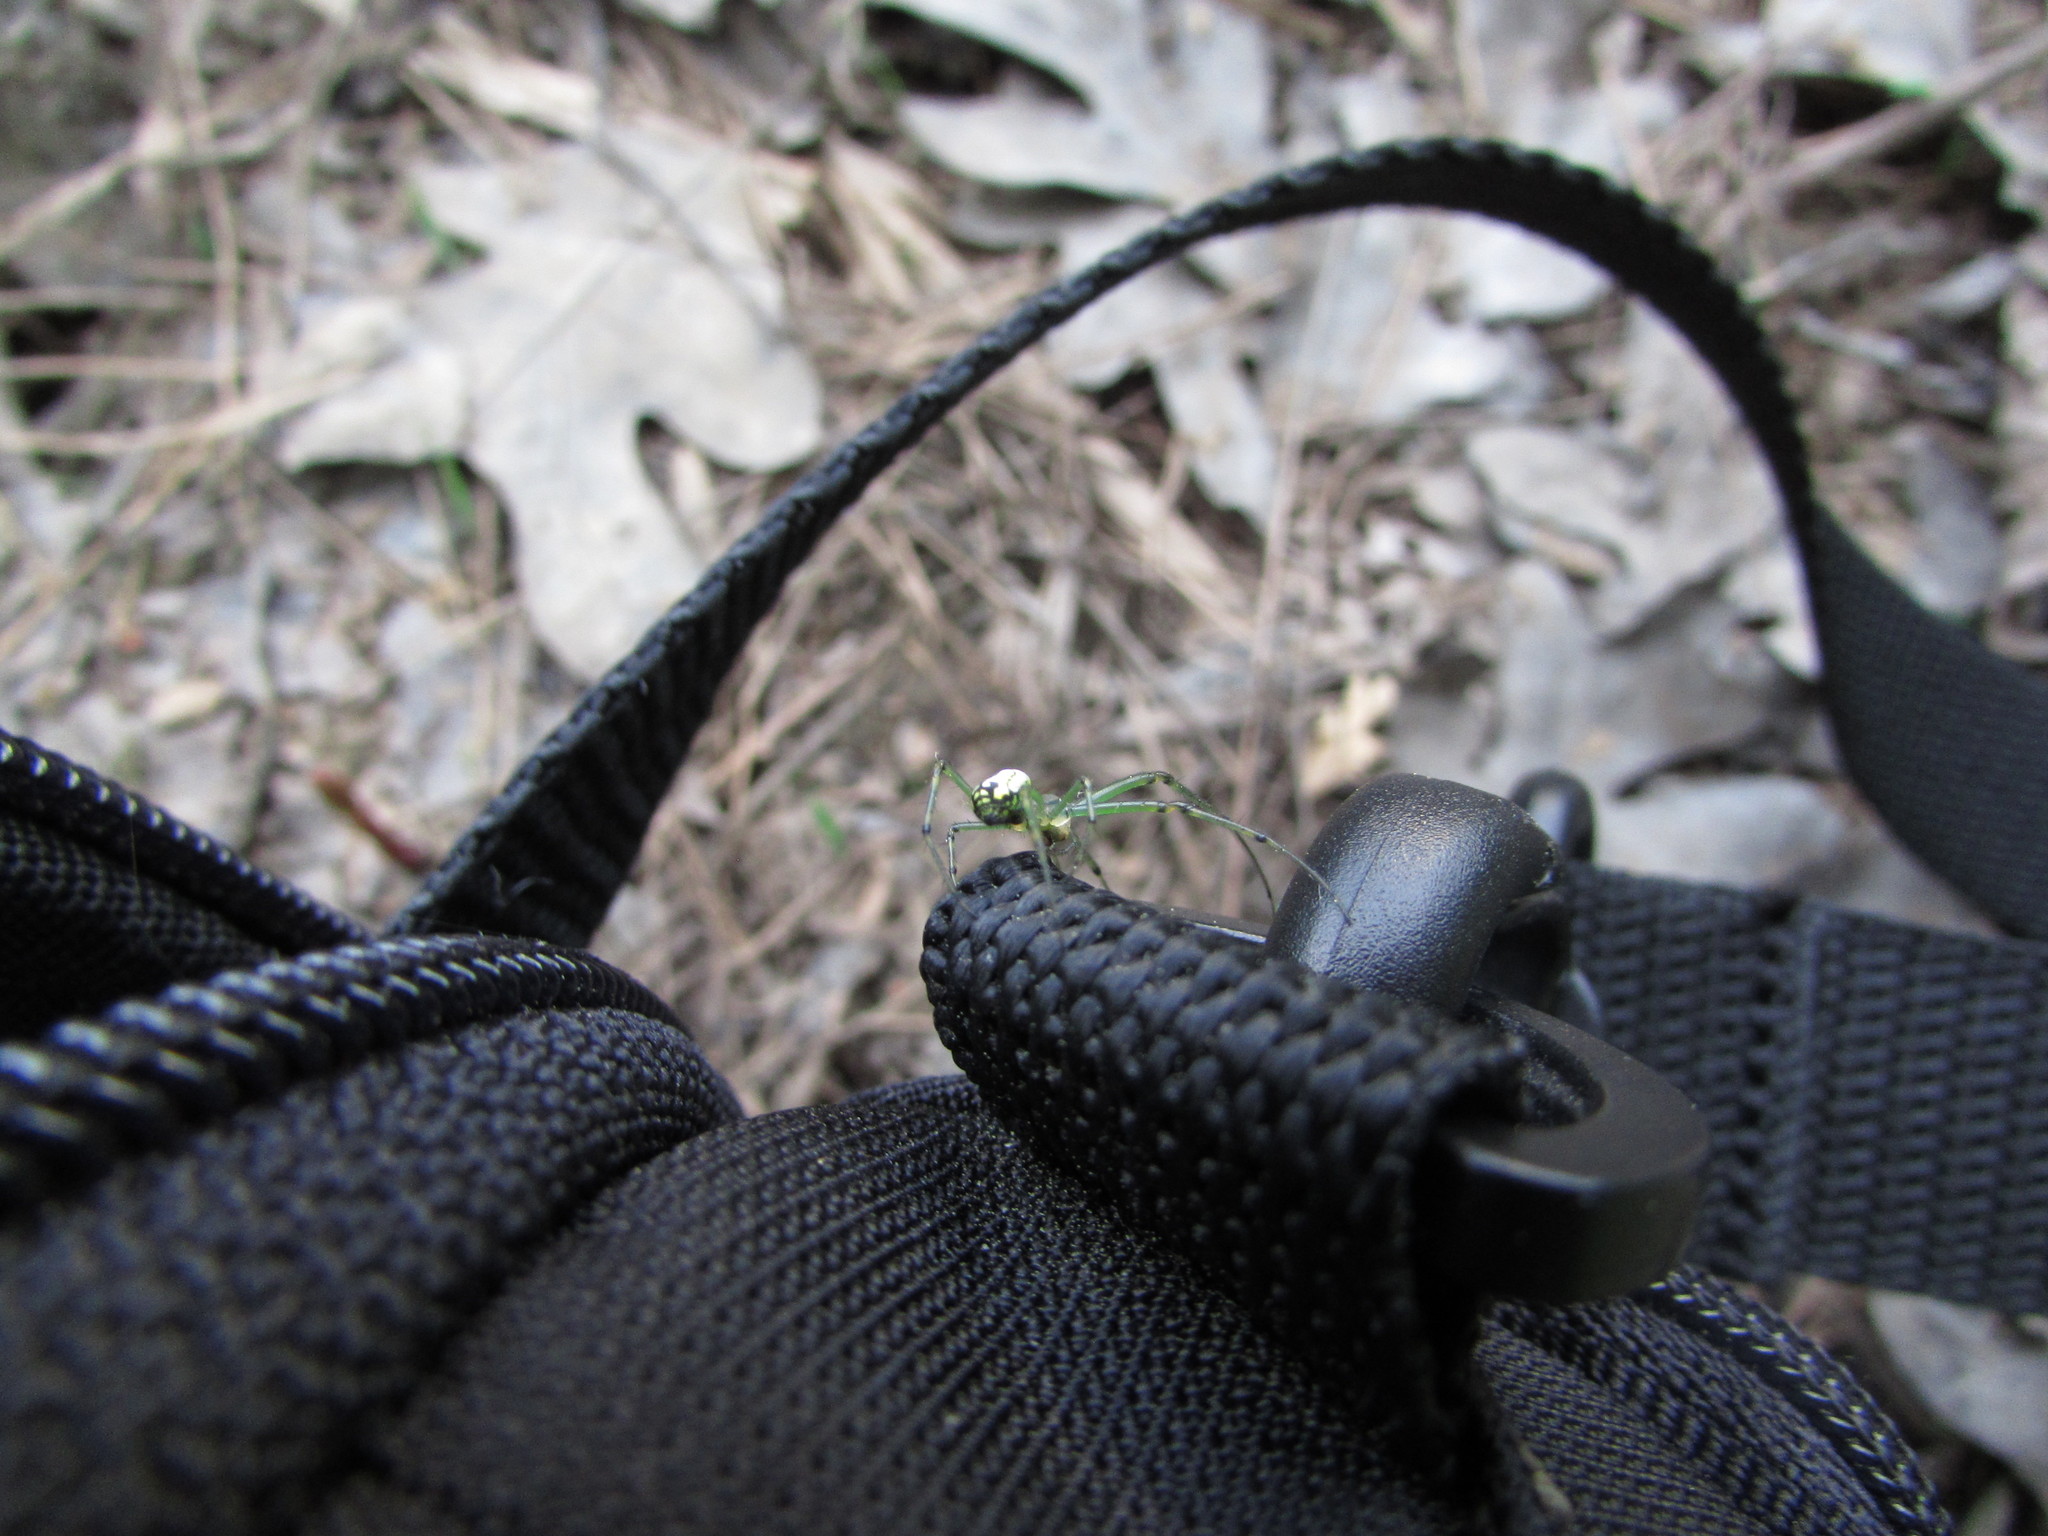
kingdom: Animalia
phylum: Arthropoda
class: Arachnida
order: Araneae
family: Tetragnathidae
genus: Leucauge
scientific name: Leucauge venusta
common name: Longjawed orb weavers
